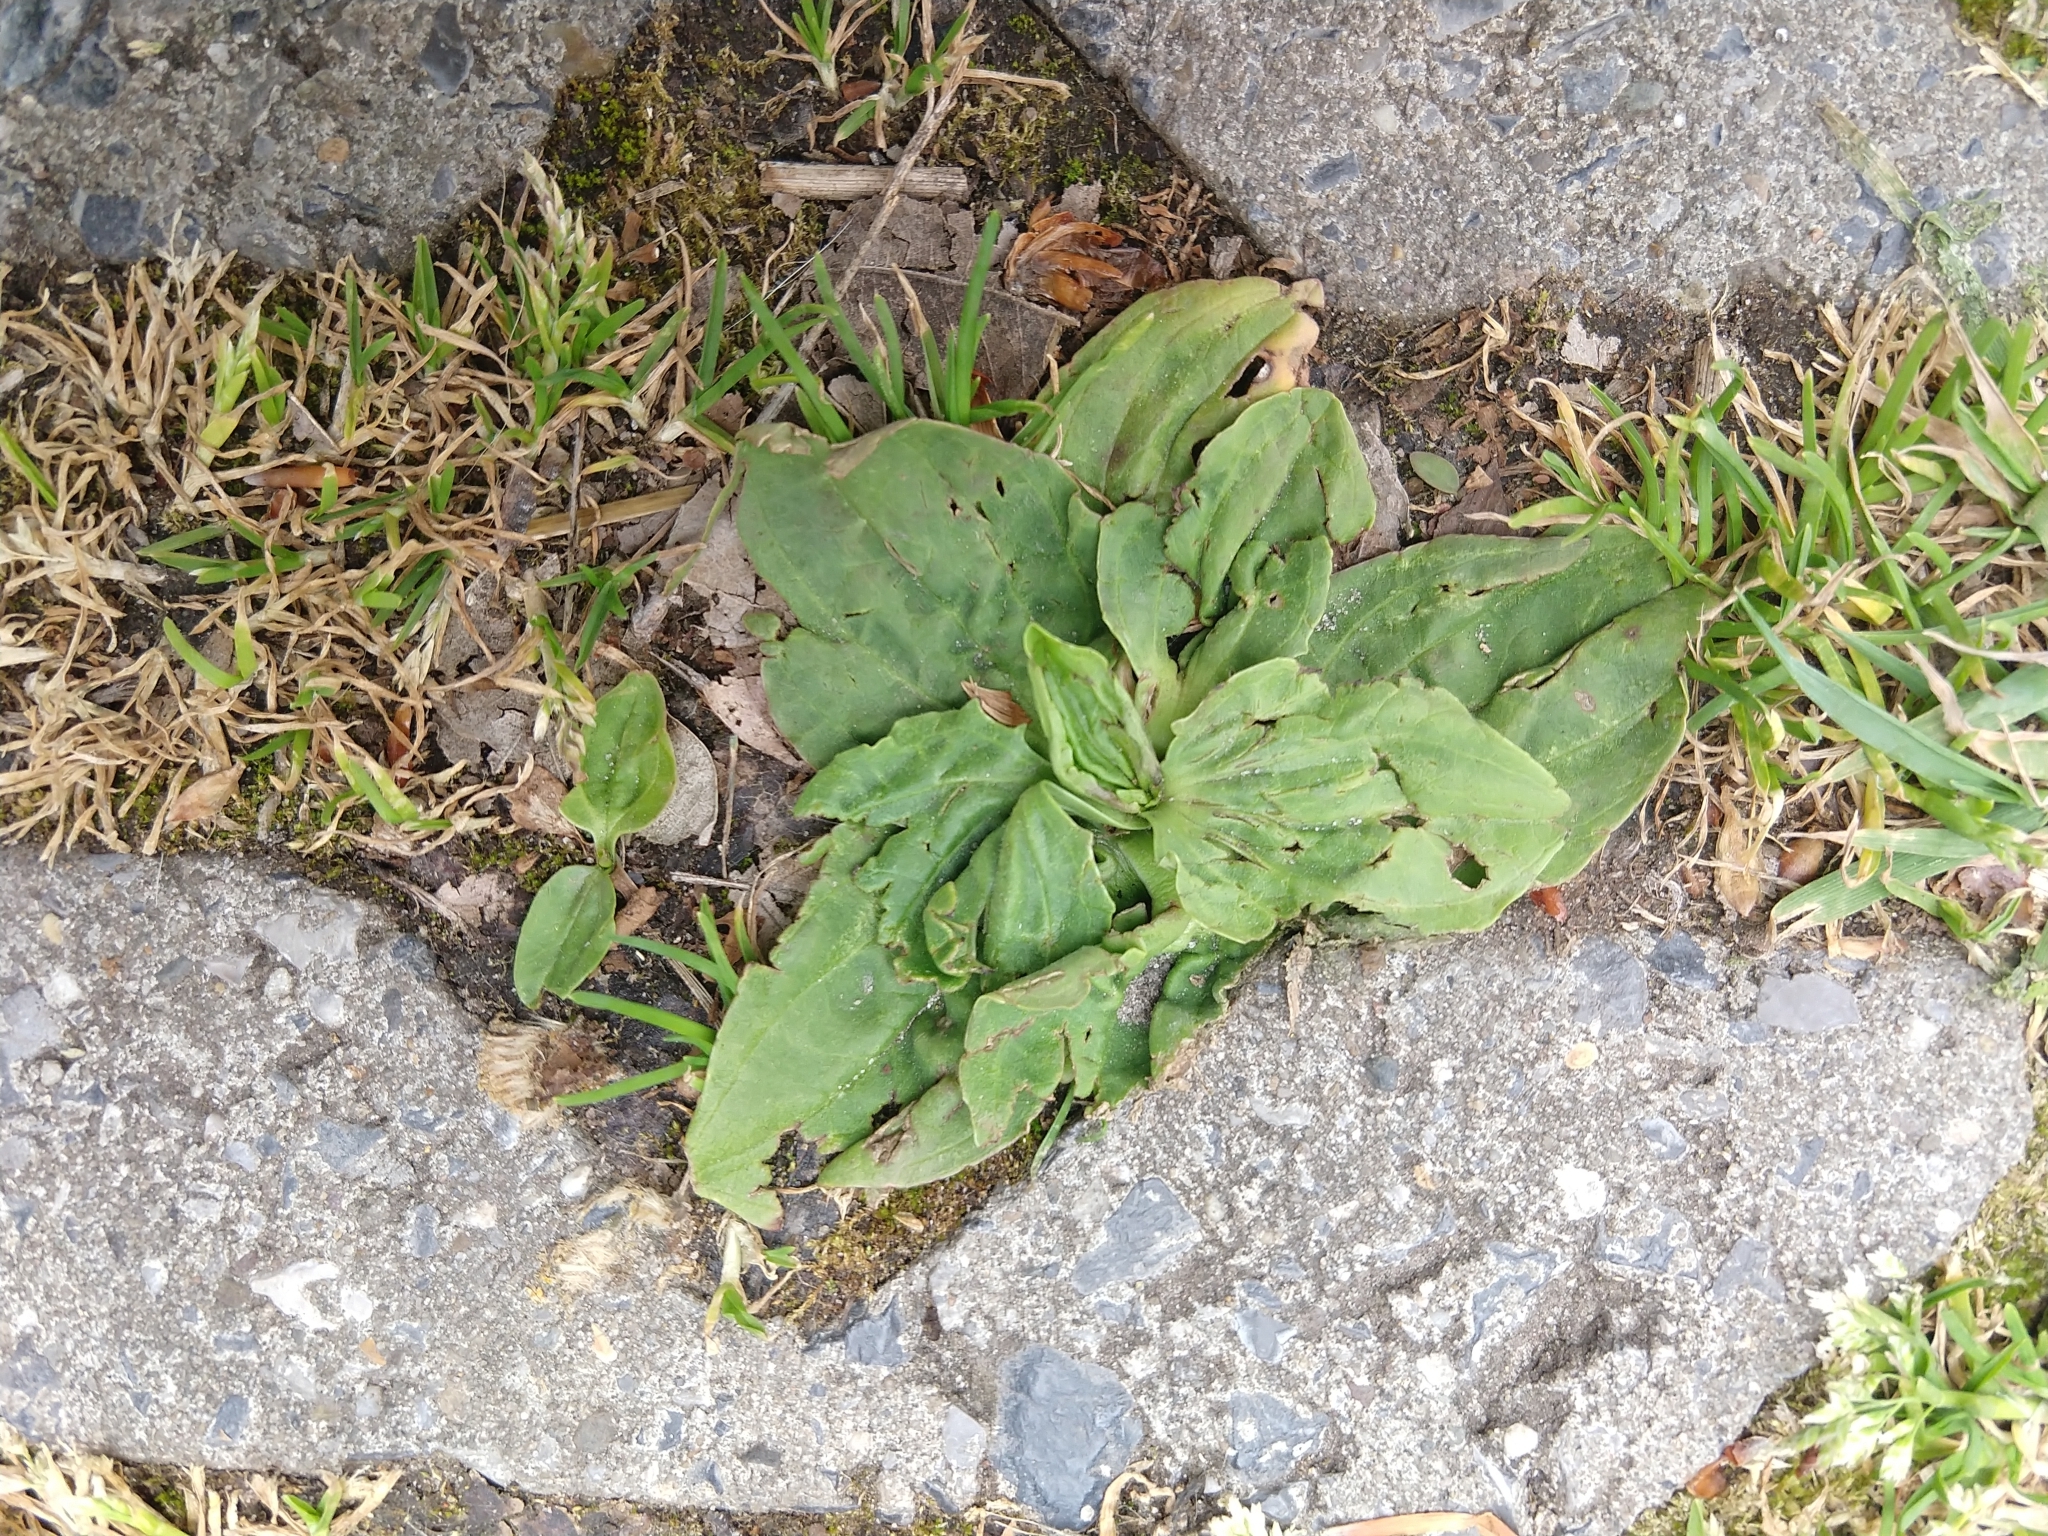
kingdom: Plantae
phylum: Tracheophyta
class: Magnoliopsida
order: Lamiales
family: Plantaginaceae
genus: Plantago
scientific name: Plantago major
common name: Common plantain
